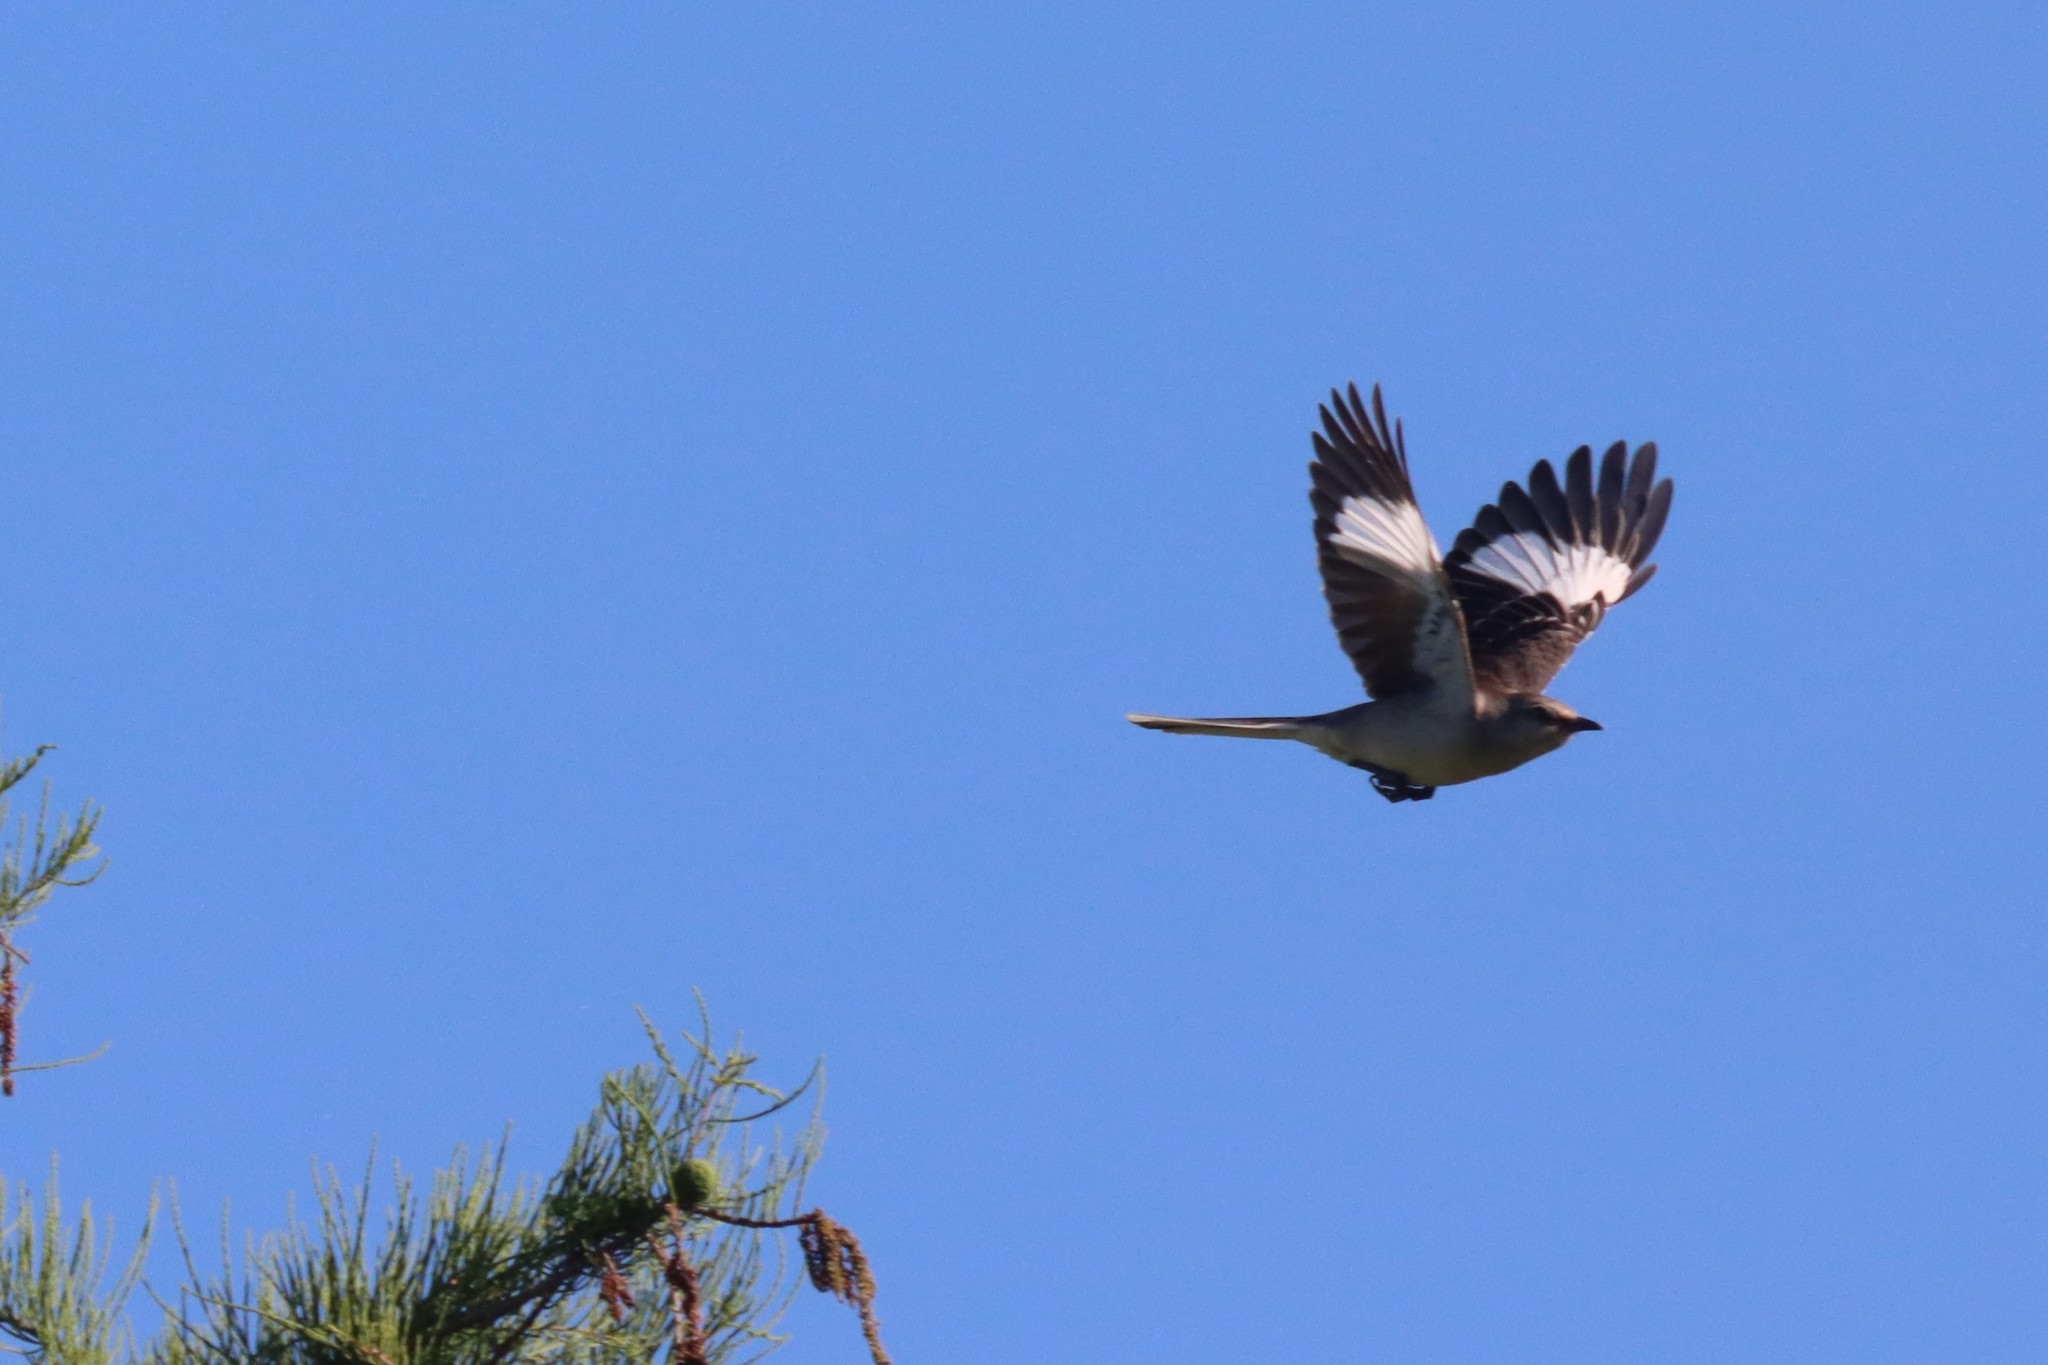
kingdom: Animalia
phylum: Chordata
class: Aves
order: Passeriformes
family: Mimidae
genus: Mimus
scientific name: Mimus polyglottos
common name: Northern mockingbird
